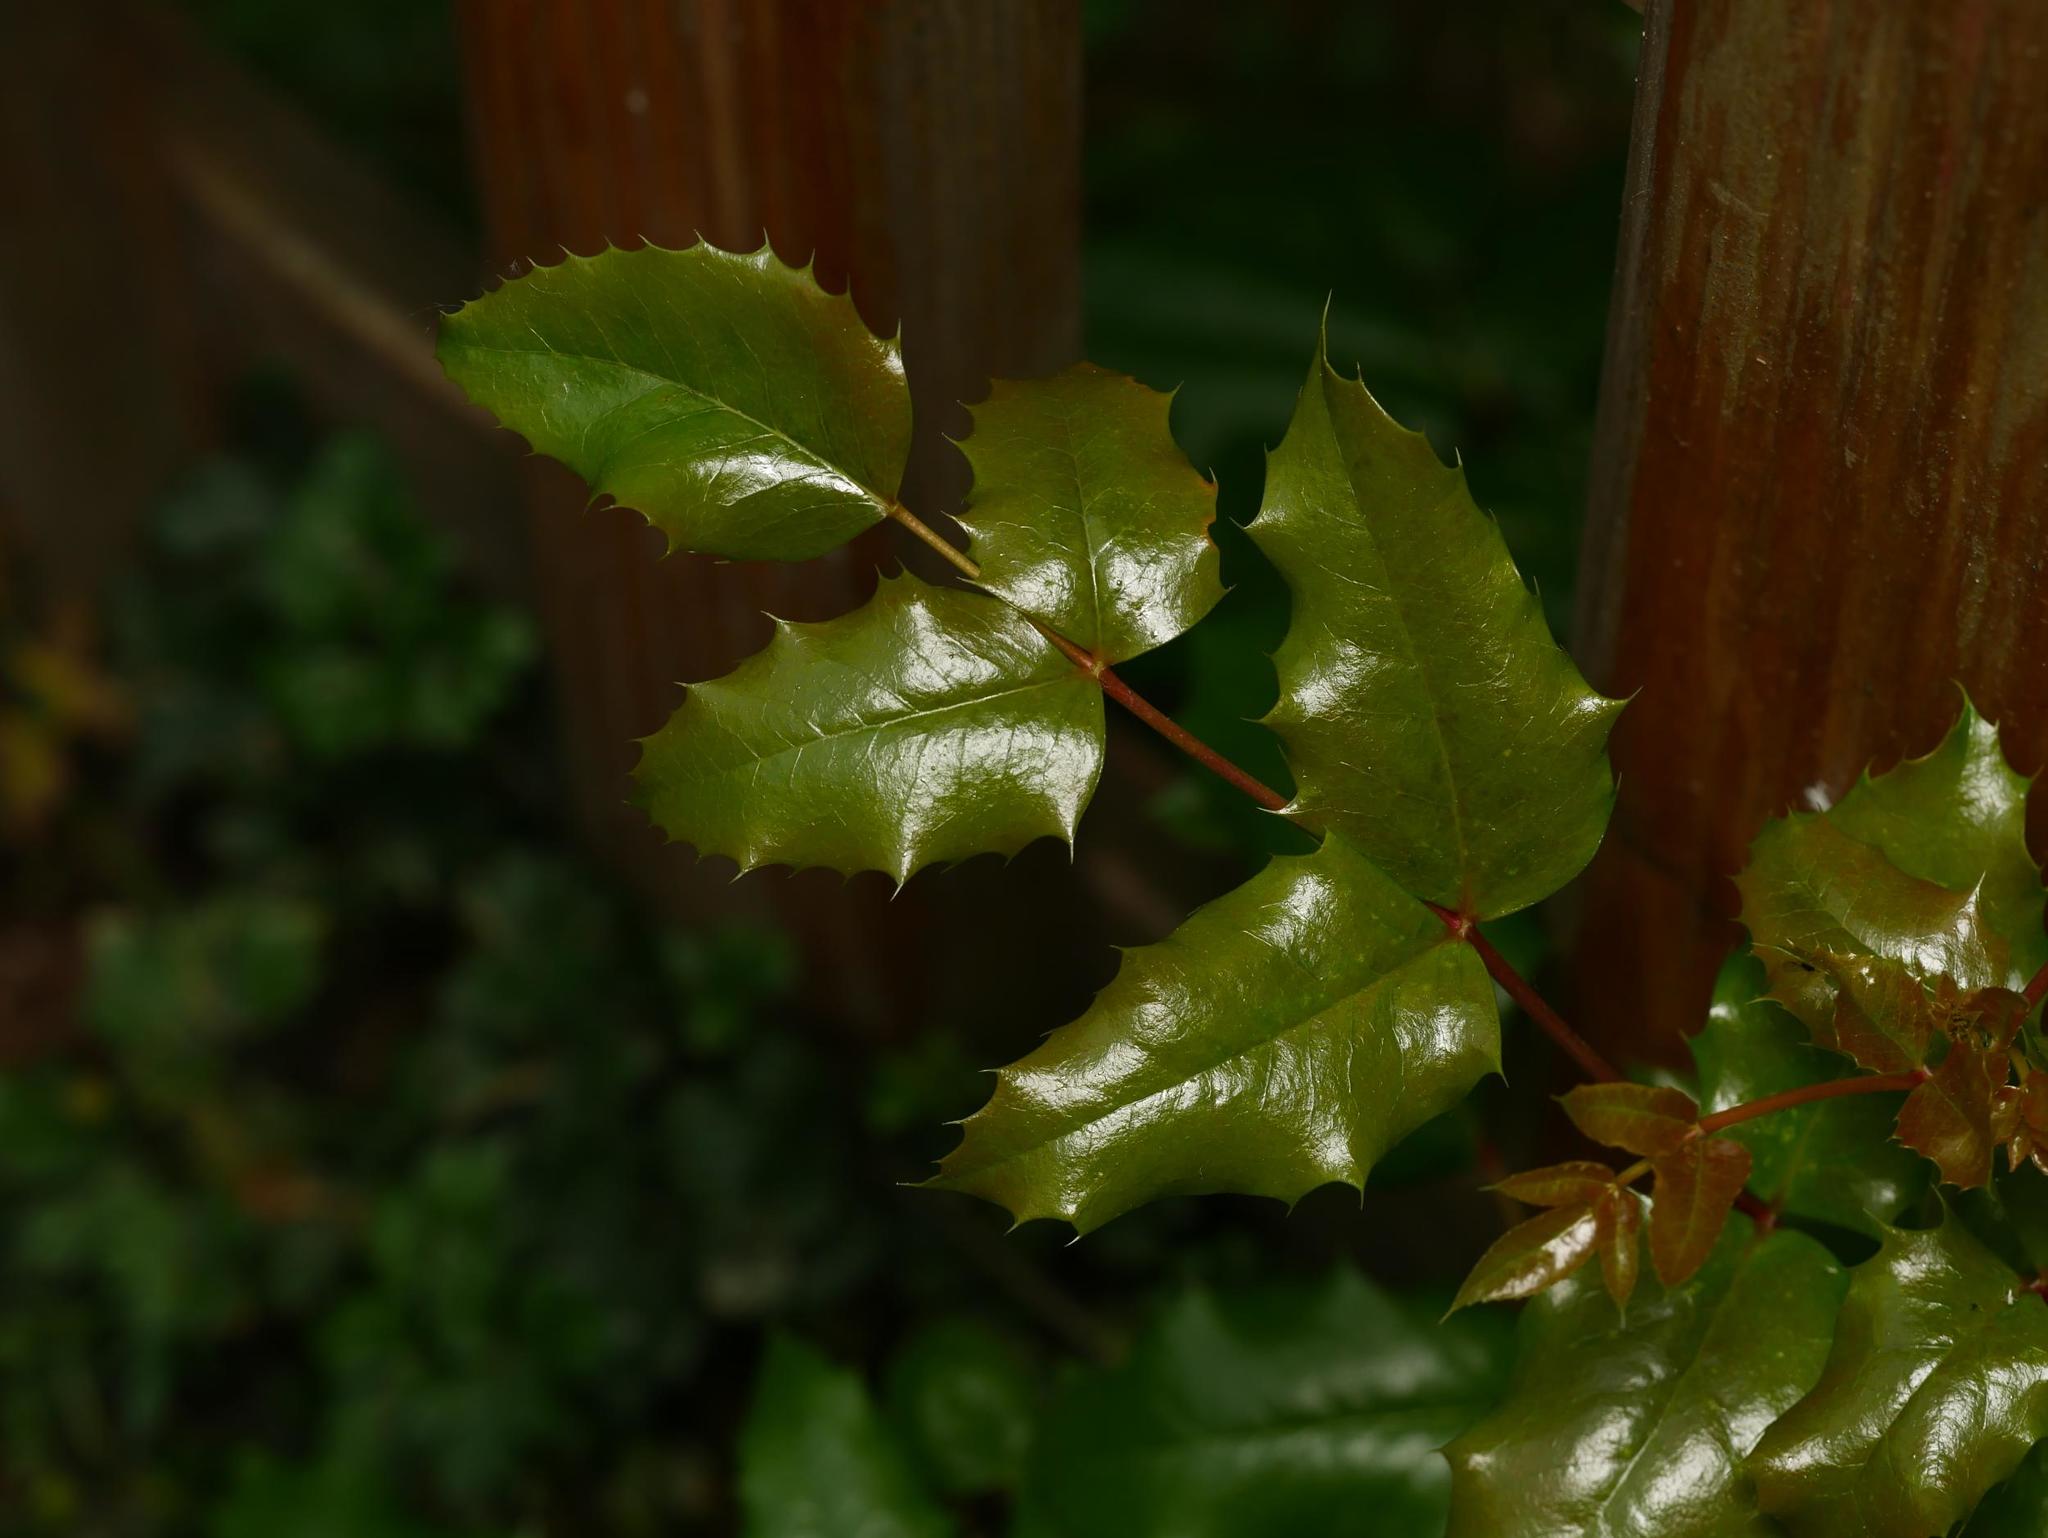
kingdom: Plantae
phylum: Tracheophyta
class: Magnoliopsida
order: Ranunculales
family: Berberidaceae
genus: Mahonia
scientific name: Mahonia aquifolium
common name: Oregon-grape
